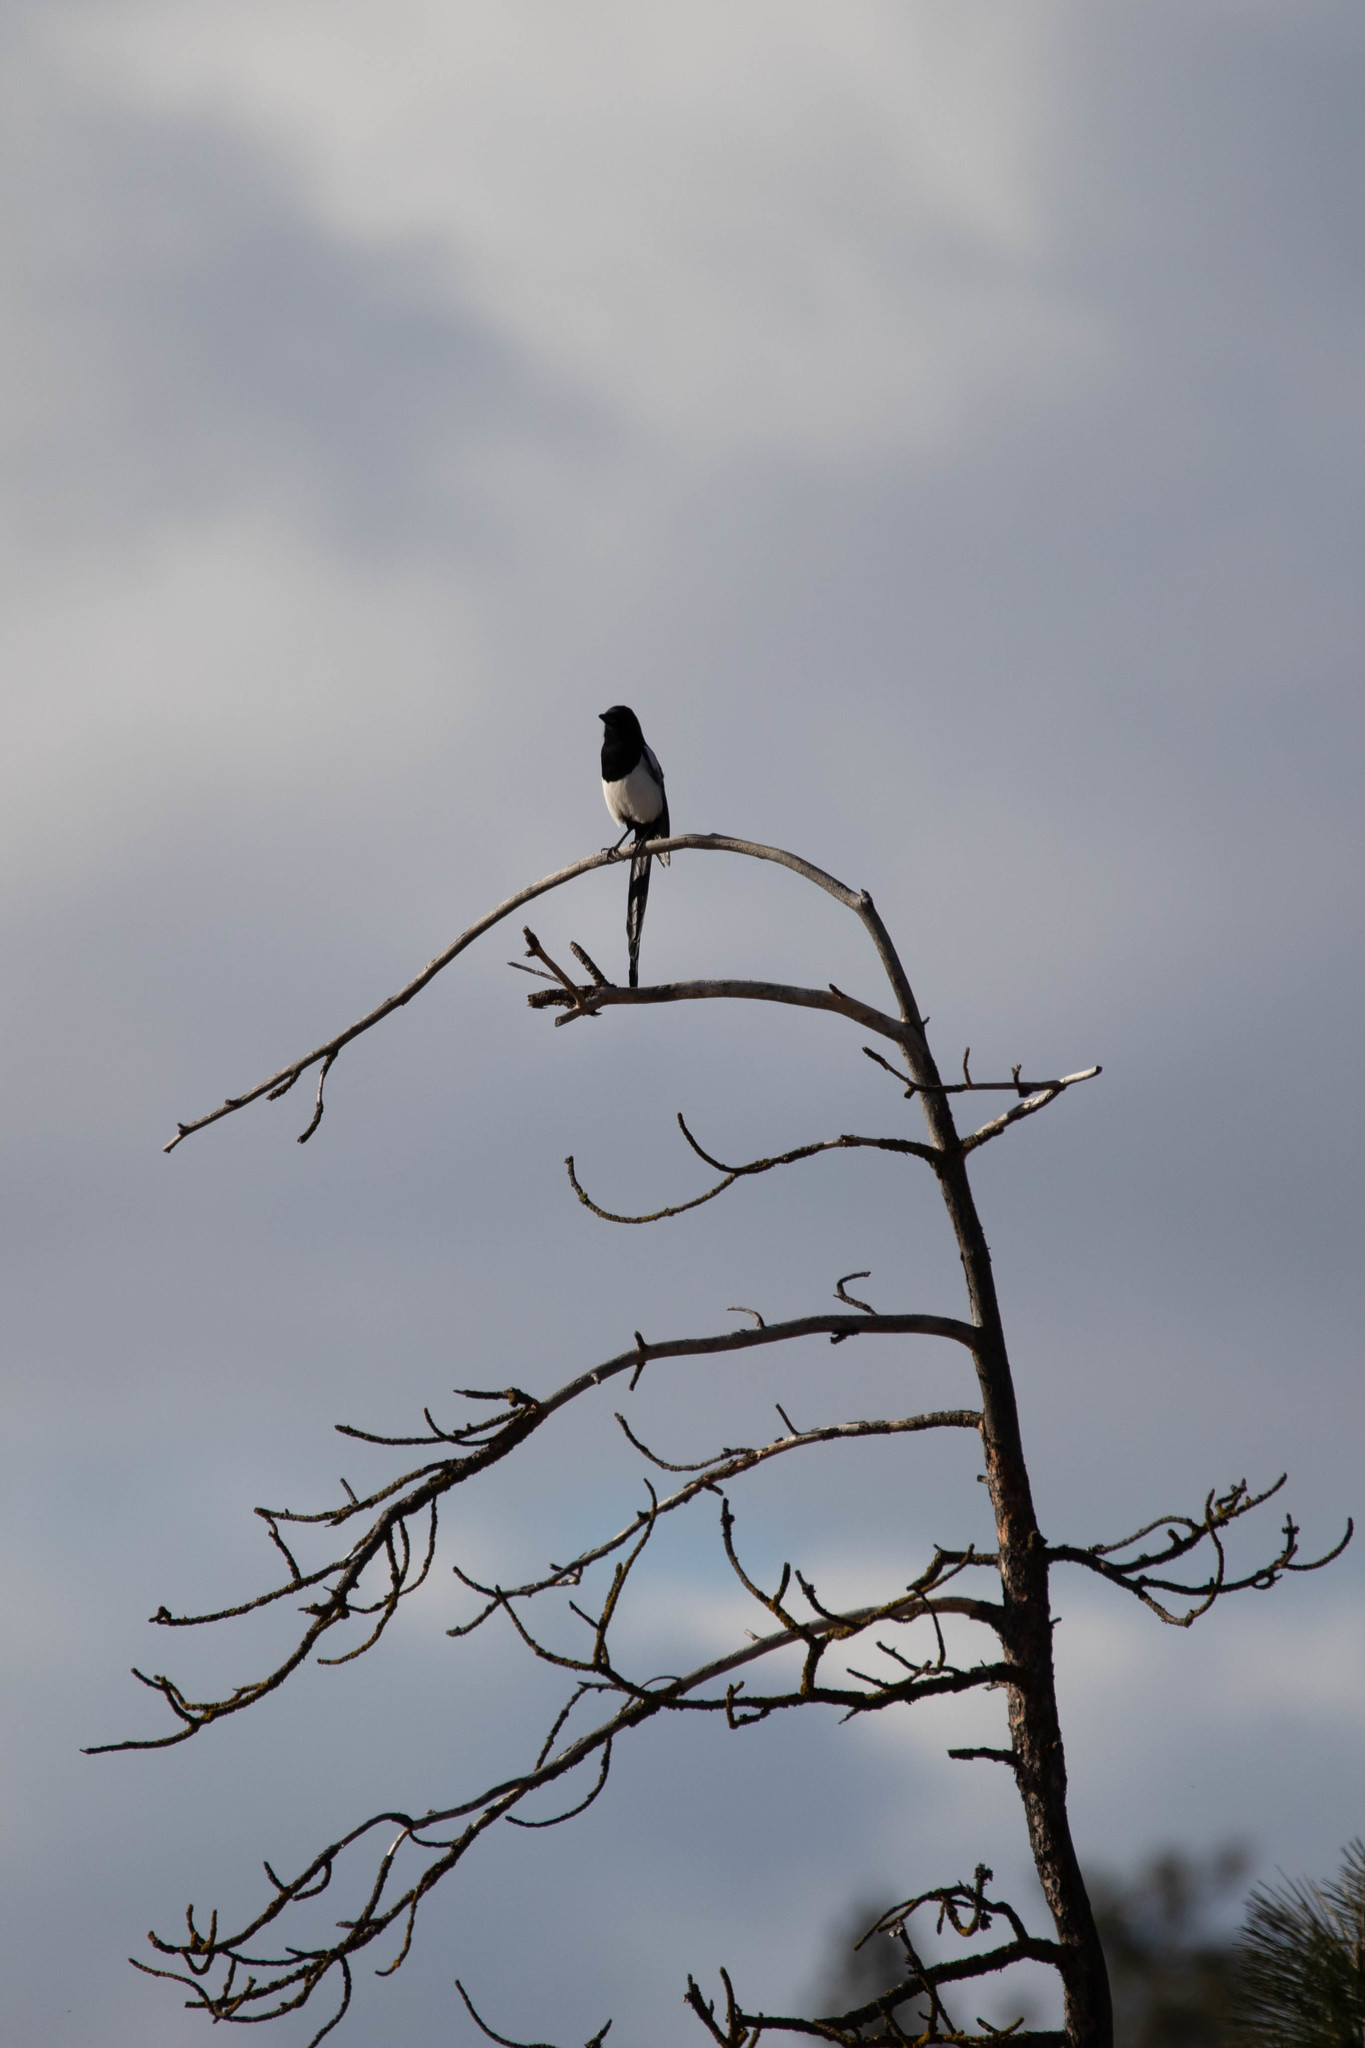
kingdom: Animalia
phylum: Chordata
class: Aves
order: Passeriformes
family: Corvidae
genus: Pica
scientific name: Pica hudsonia
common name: Black-billed magpie
